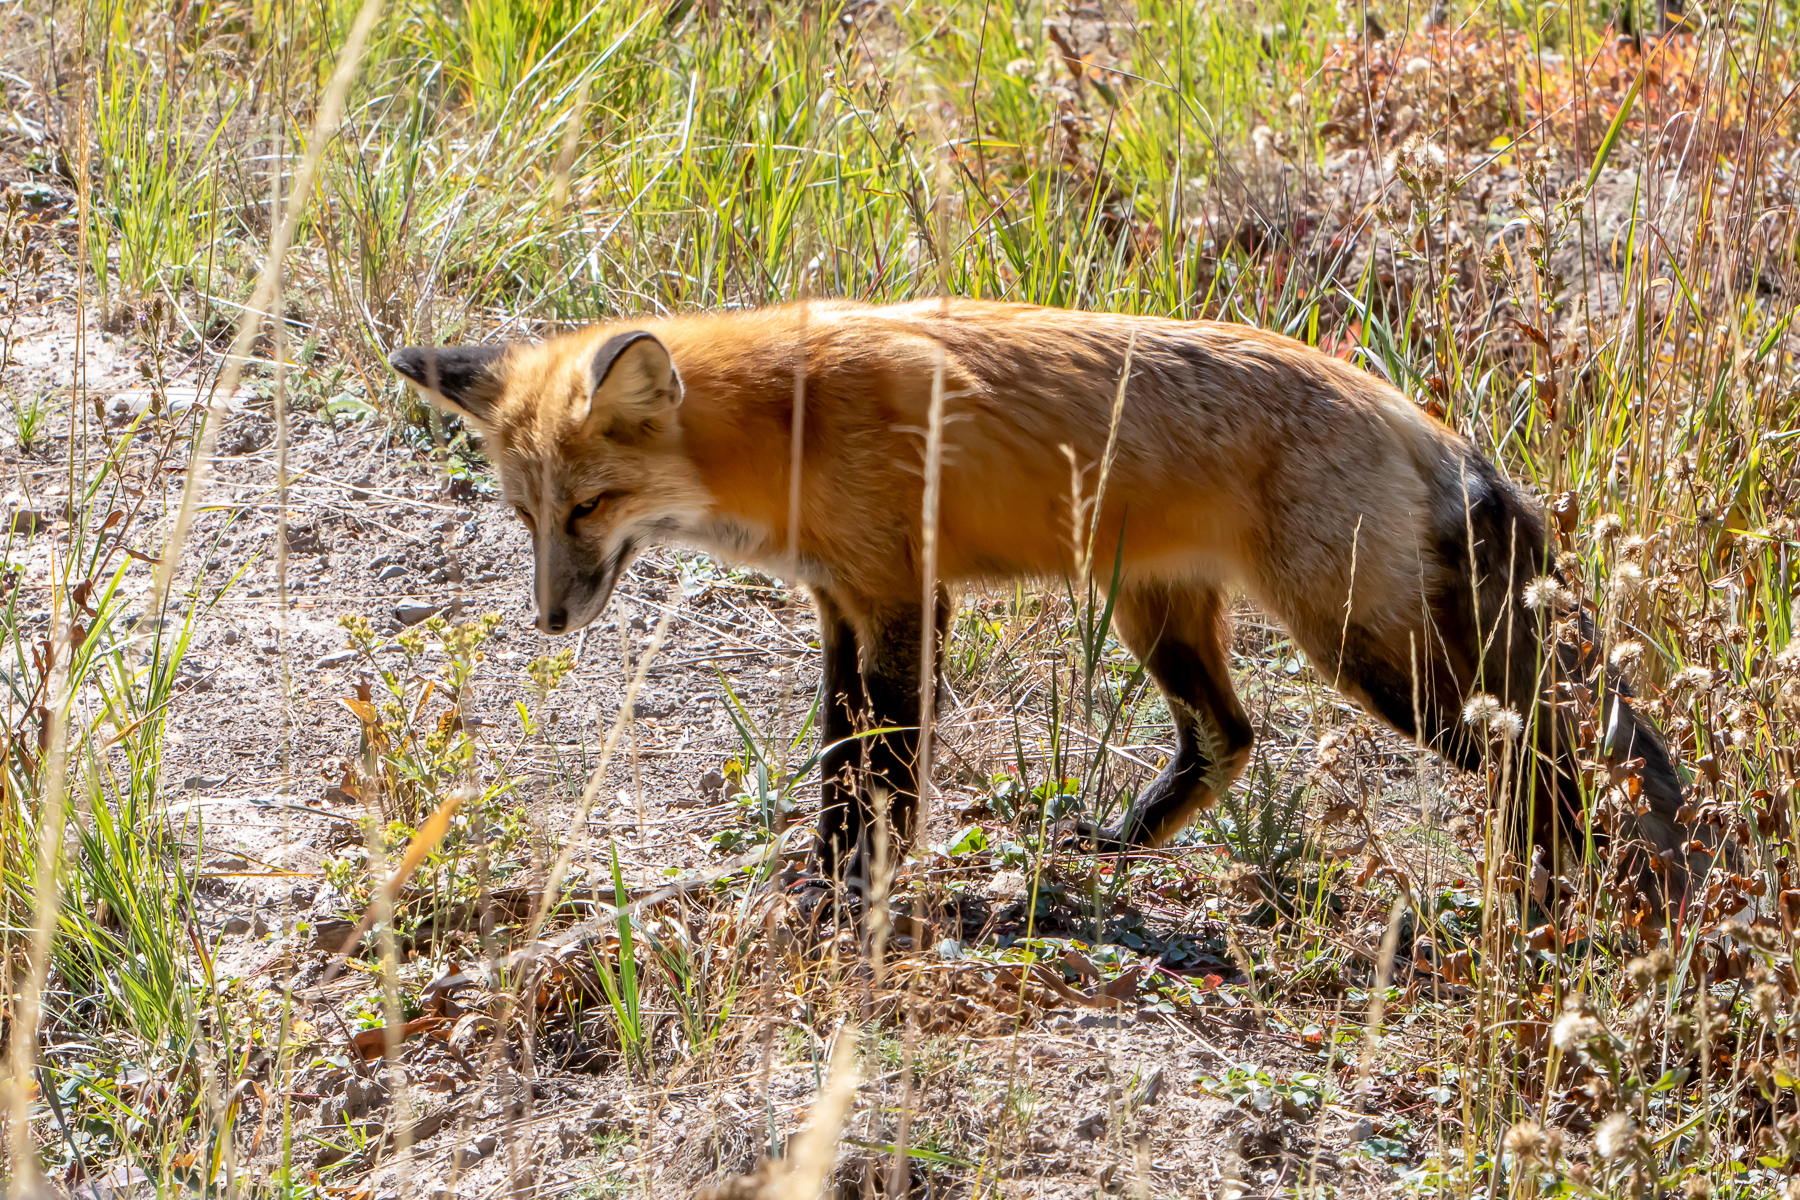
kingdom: Animalia
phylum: Chordata
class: Mammalia
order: Carnivora
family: Canidae
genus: Vulpes
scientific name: Vulpes vulpes
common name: Red fox
